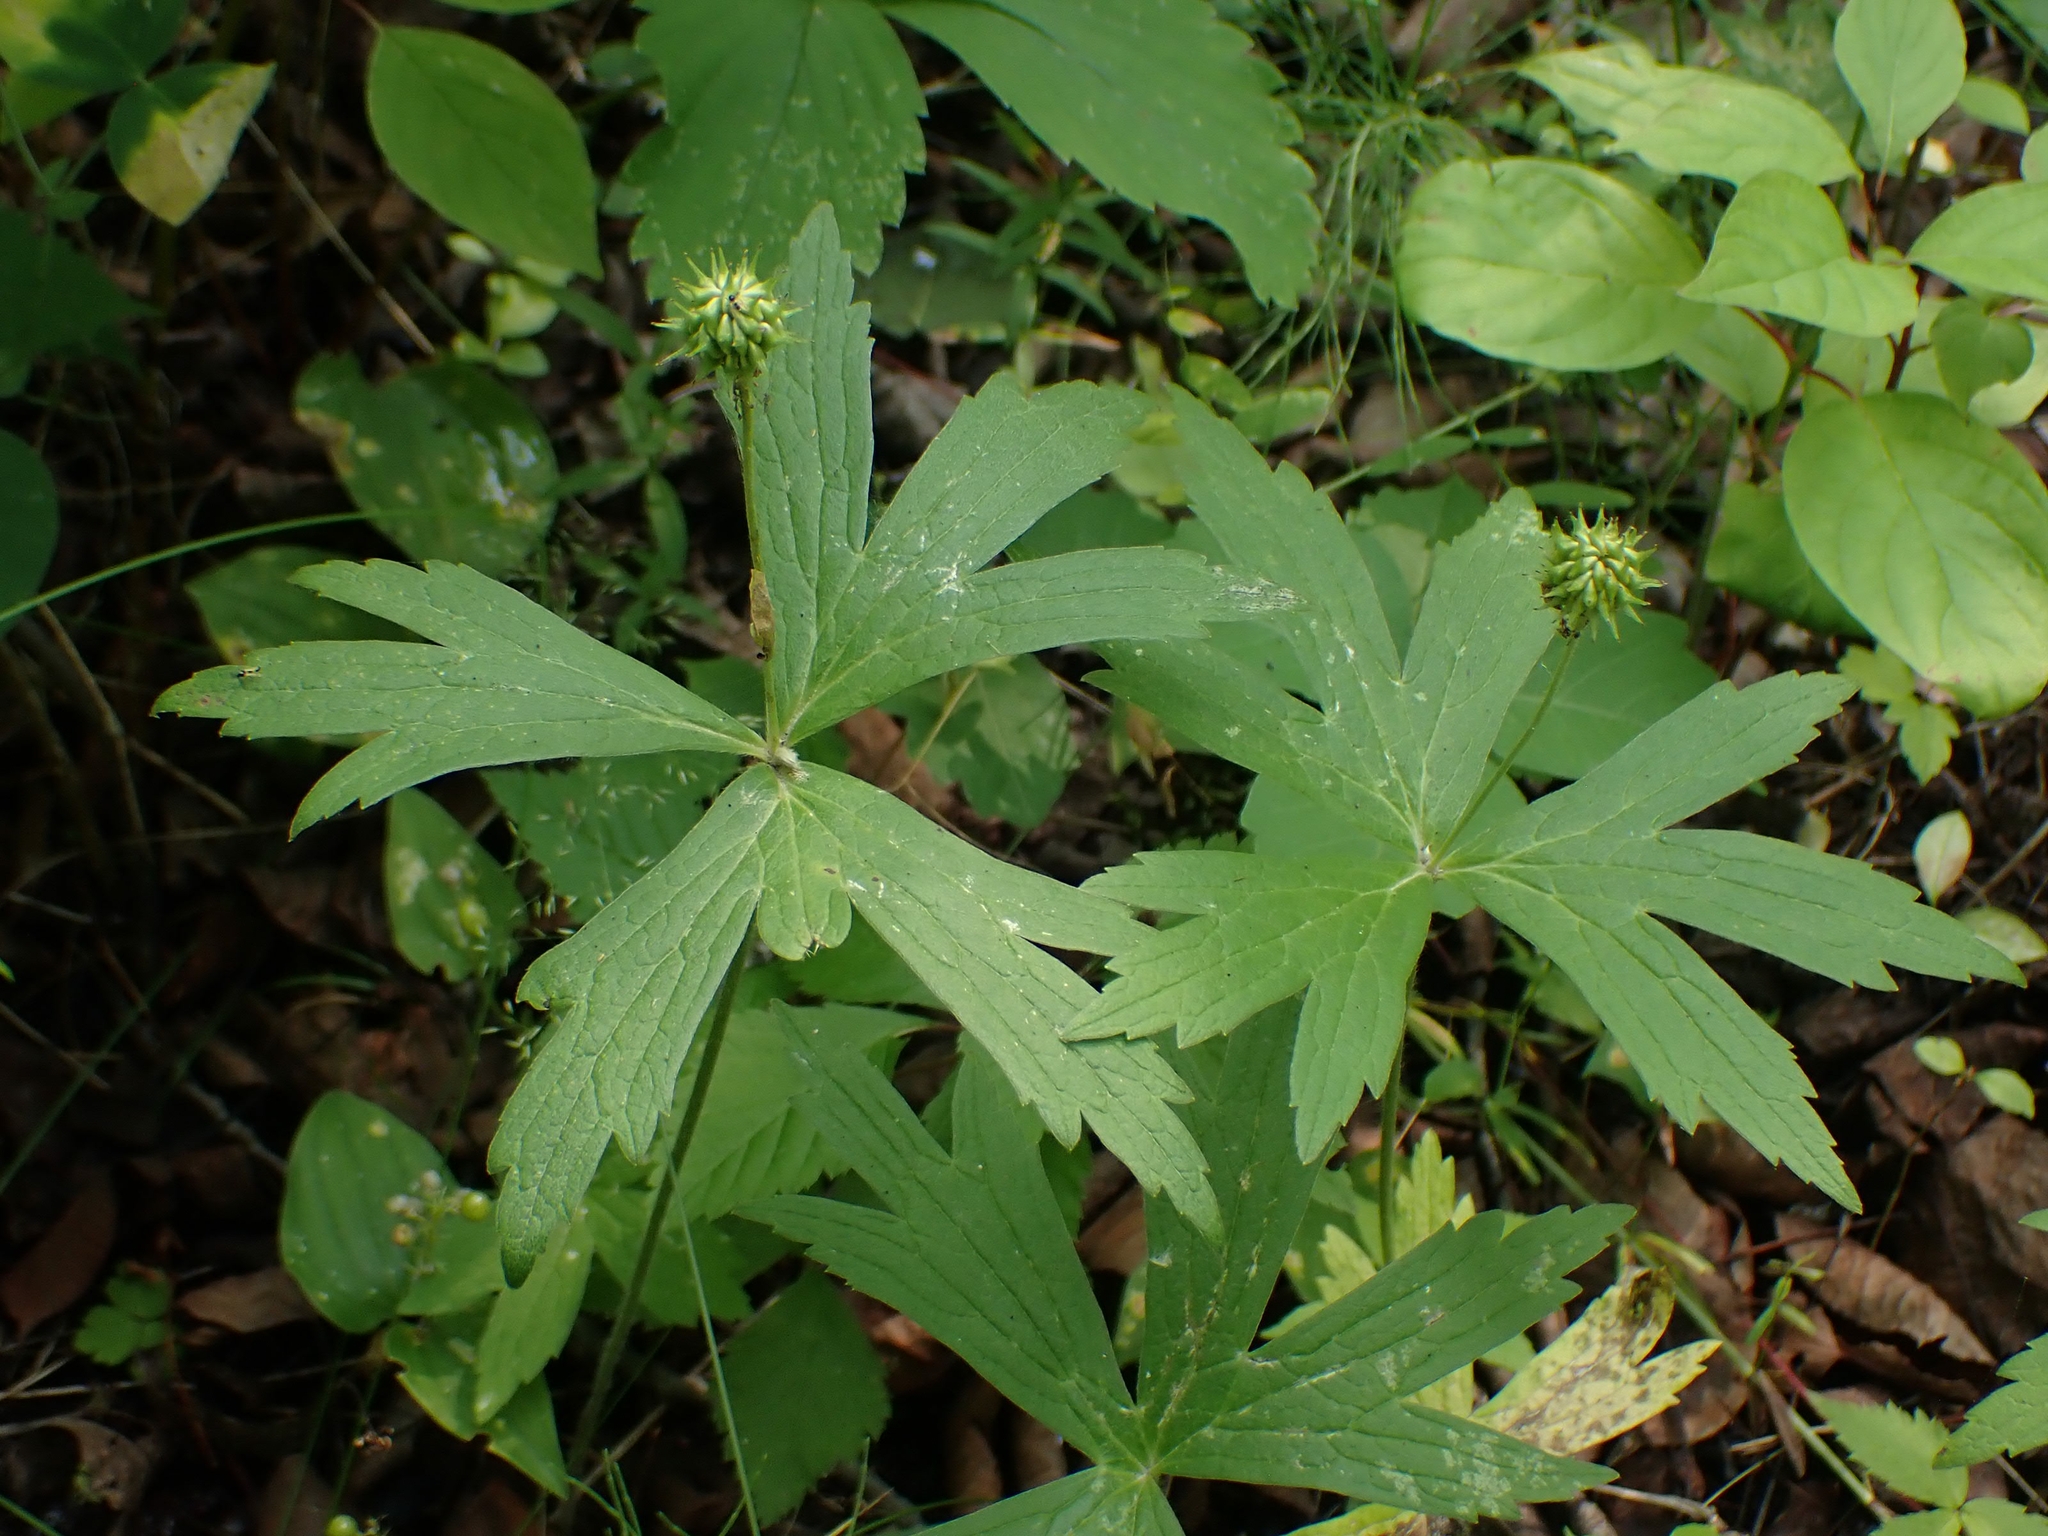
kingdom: Plantae
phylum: Tracheophyta
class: Magnoliopsida
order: Ranunculales
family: Ranunculaceae
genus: Anemonastrum
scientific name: Anemonastrum canadense
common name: Canada anemone
